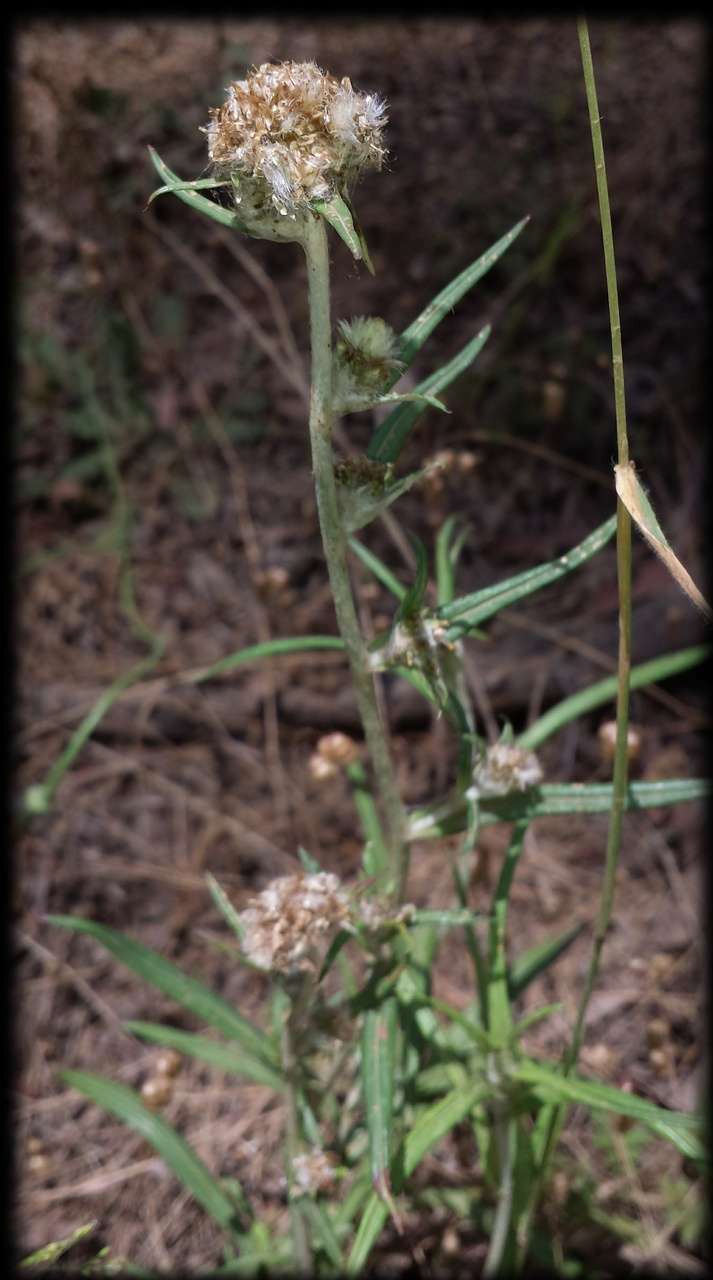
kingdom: Plantae
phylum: Tracheophyta
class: Magnoliopsida
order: Asterales
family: Asteraceae
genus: Euchiton
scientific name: Euchiton sphaericus
